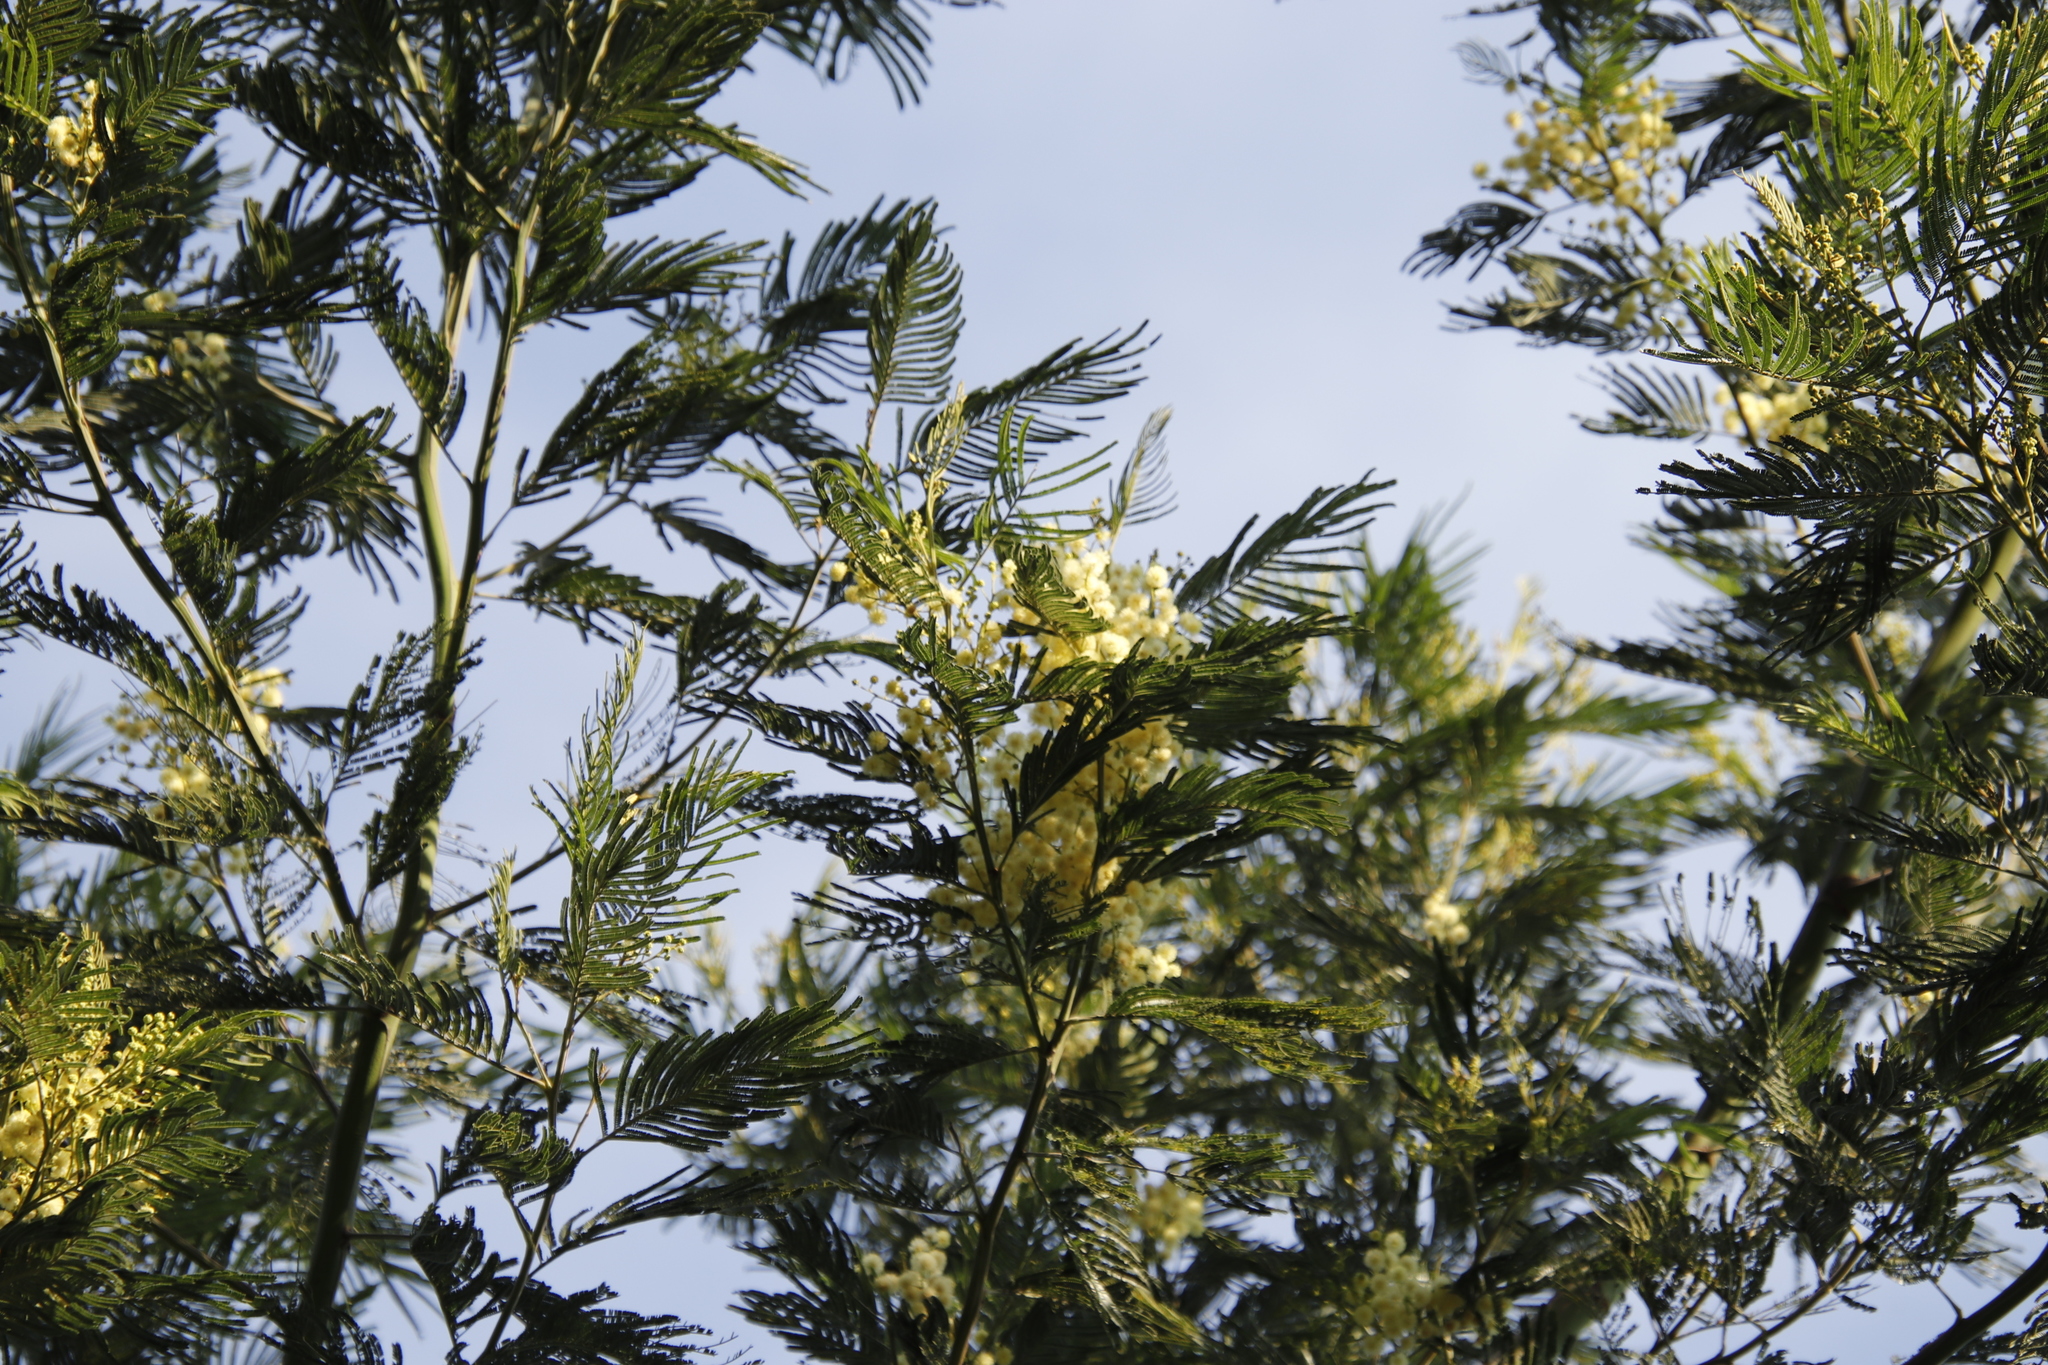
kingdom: Plantae
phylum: Tracheophyta
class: Magnoliopsida
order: Fabales
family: Fabaceae
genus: Acacia
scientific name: Acacia mearnsii
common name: Black wattle
